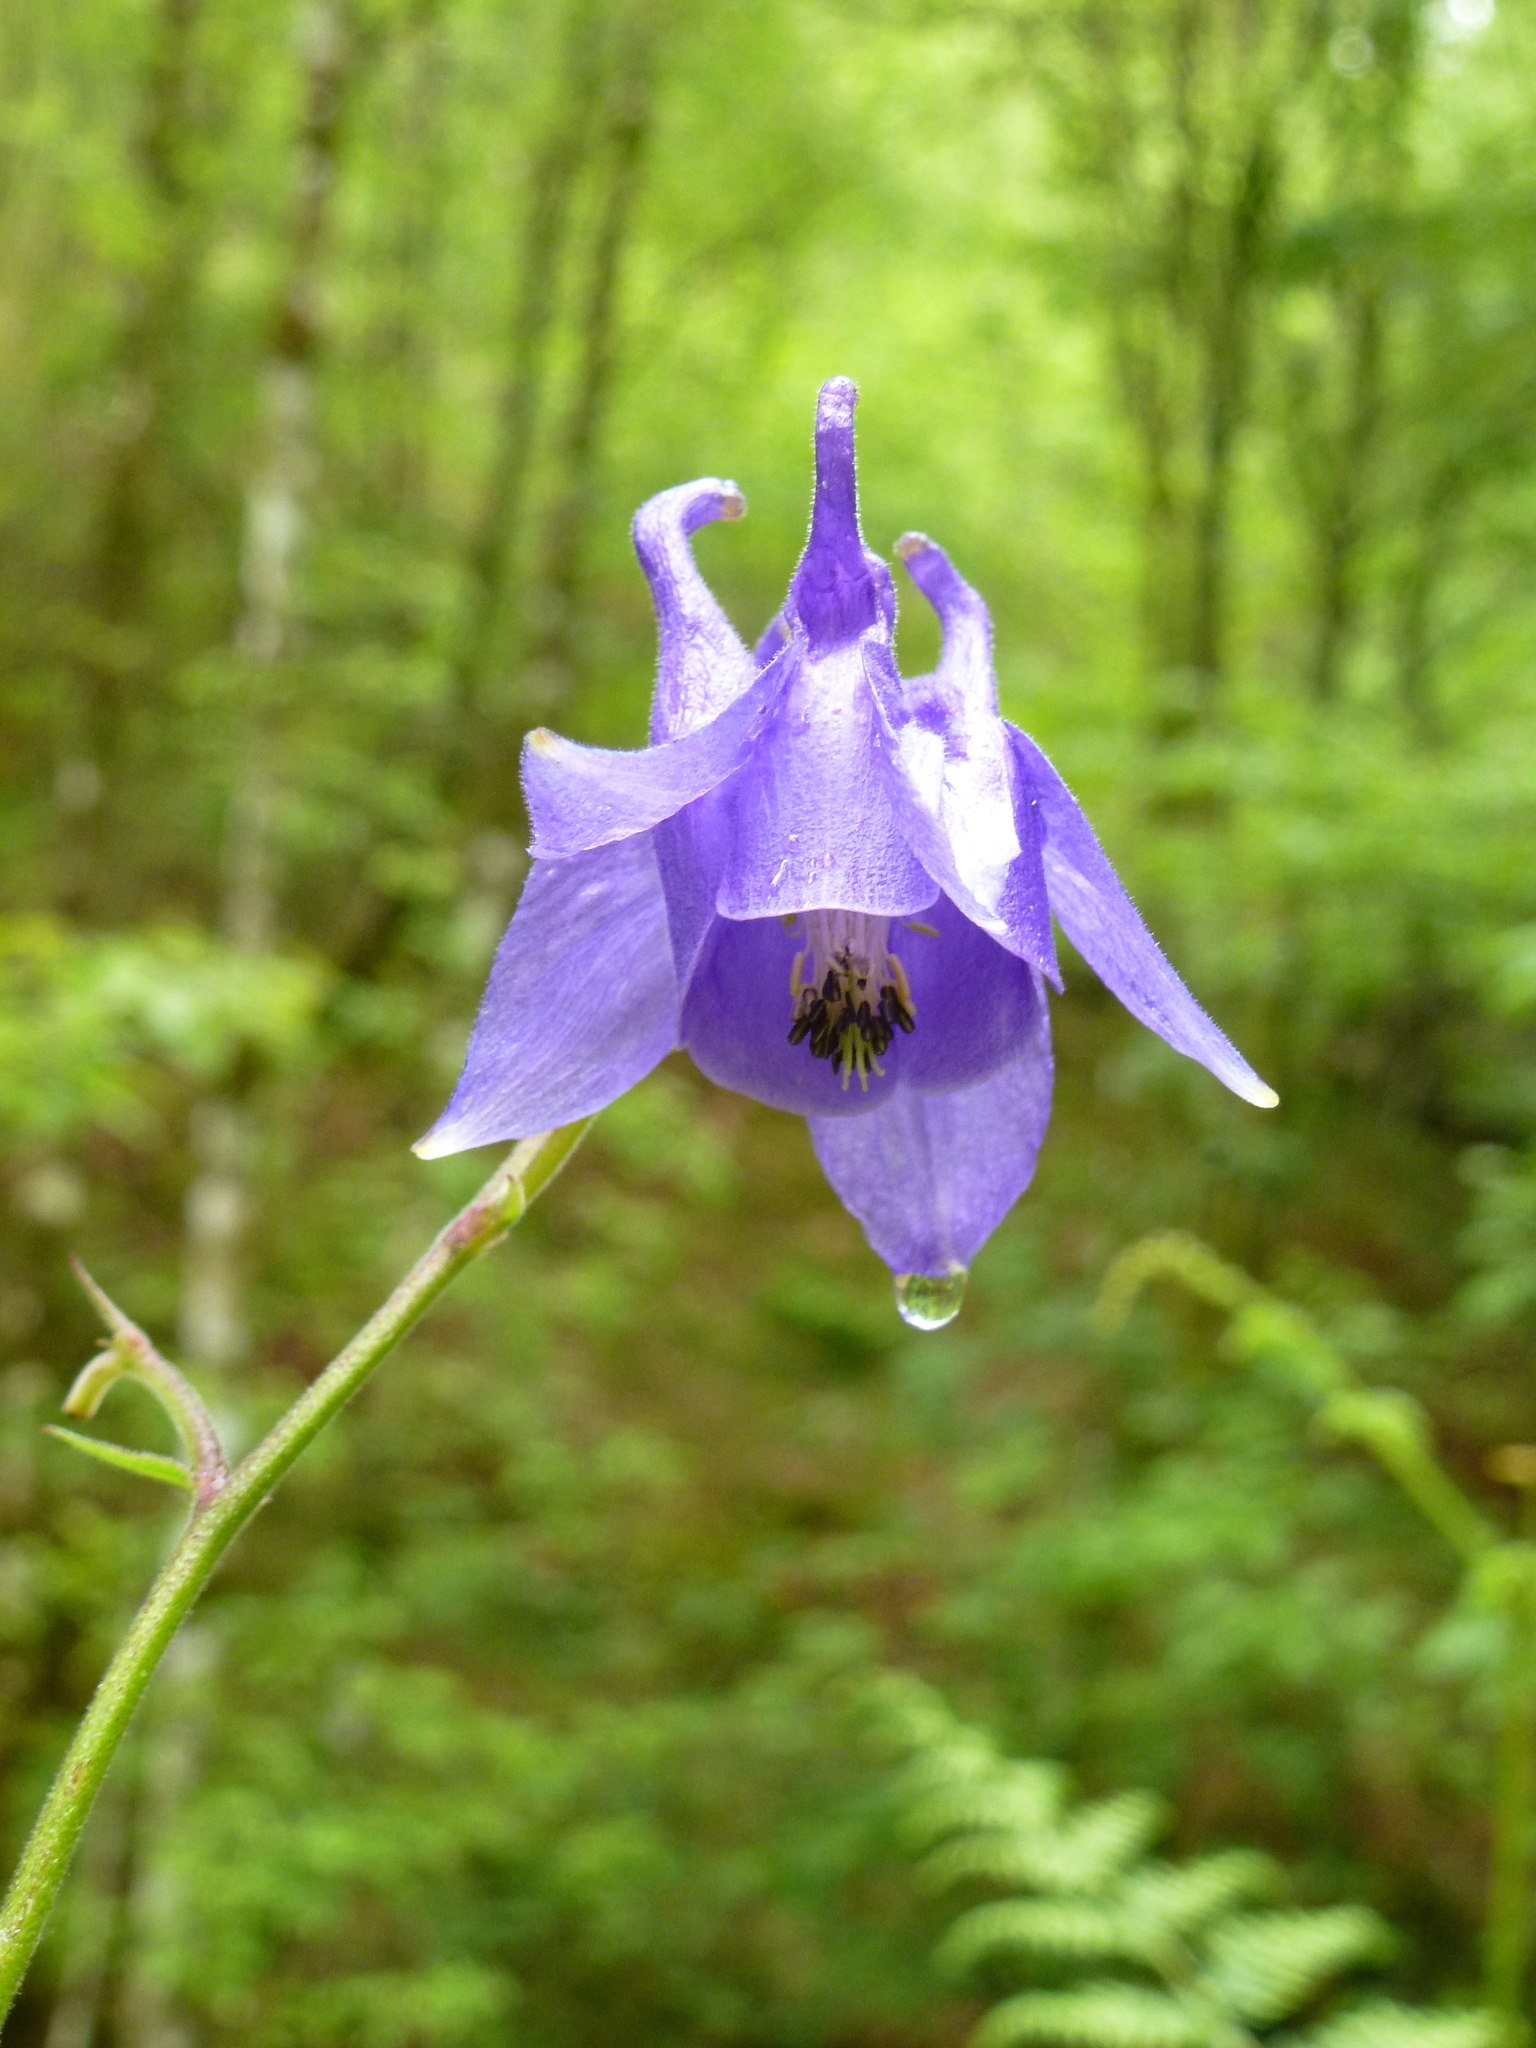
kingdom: Plantae
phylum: Tracheophyta
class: Magnoliopsida
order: Ranunculales
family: Ranunculaceae
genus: Aquilegia
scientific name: Aquilegia vulgaris
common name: Columbine
